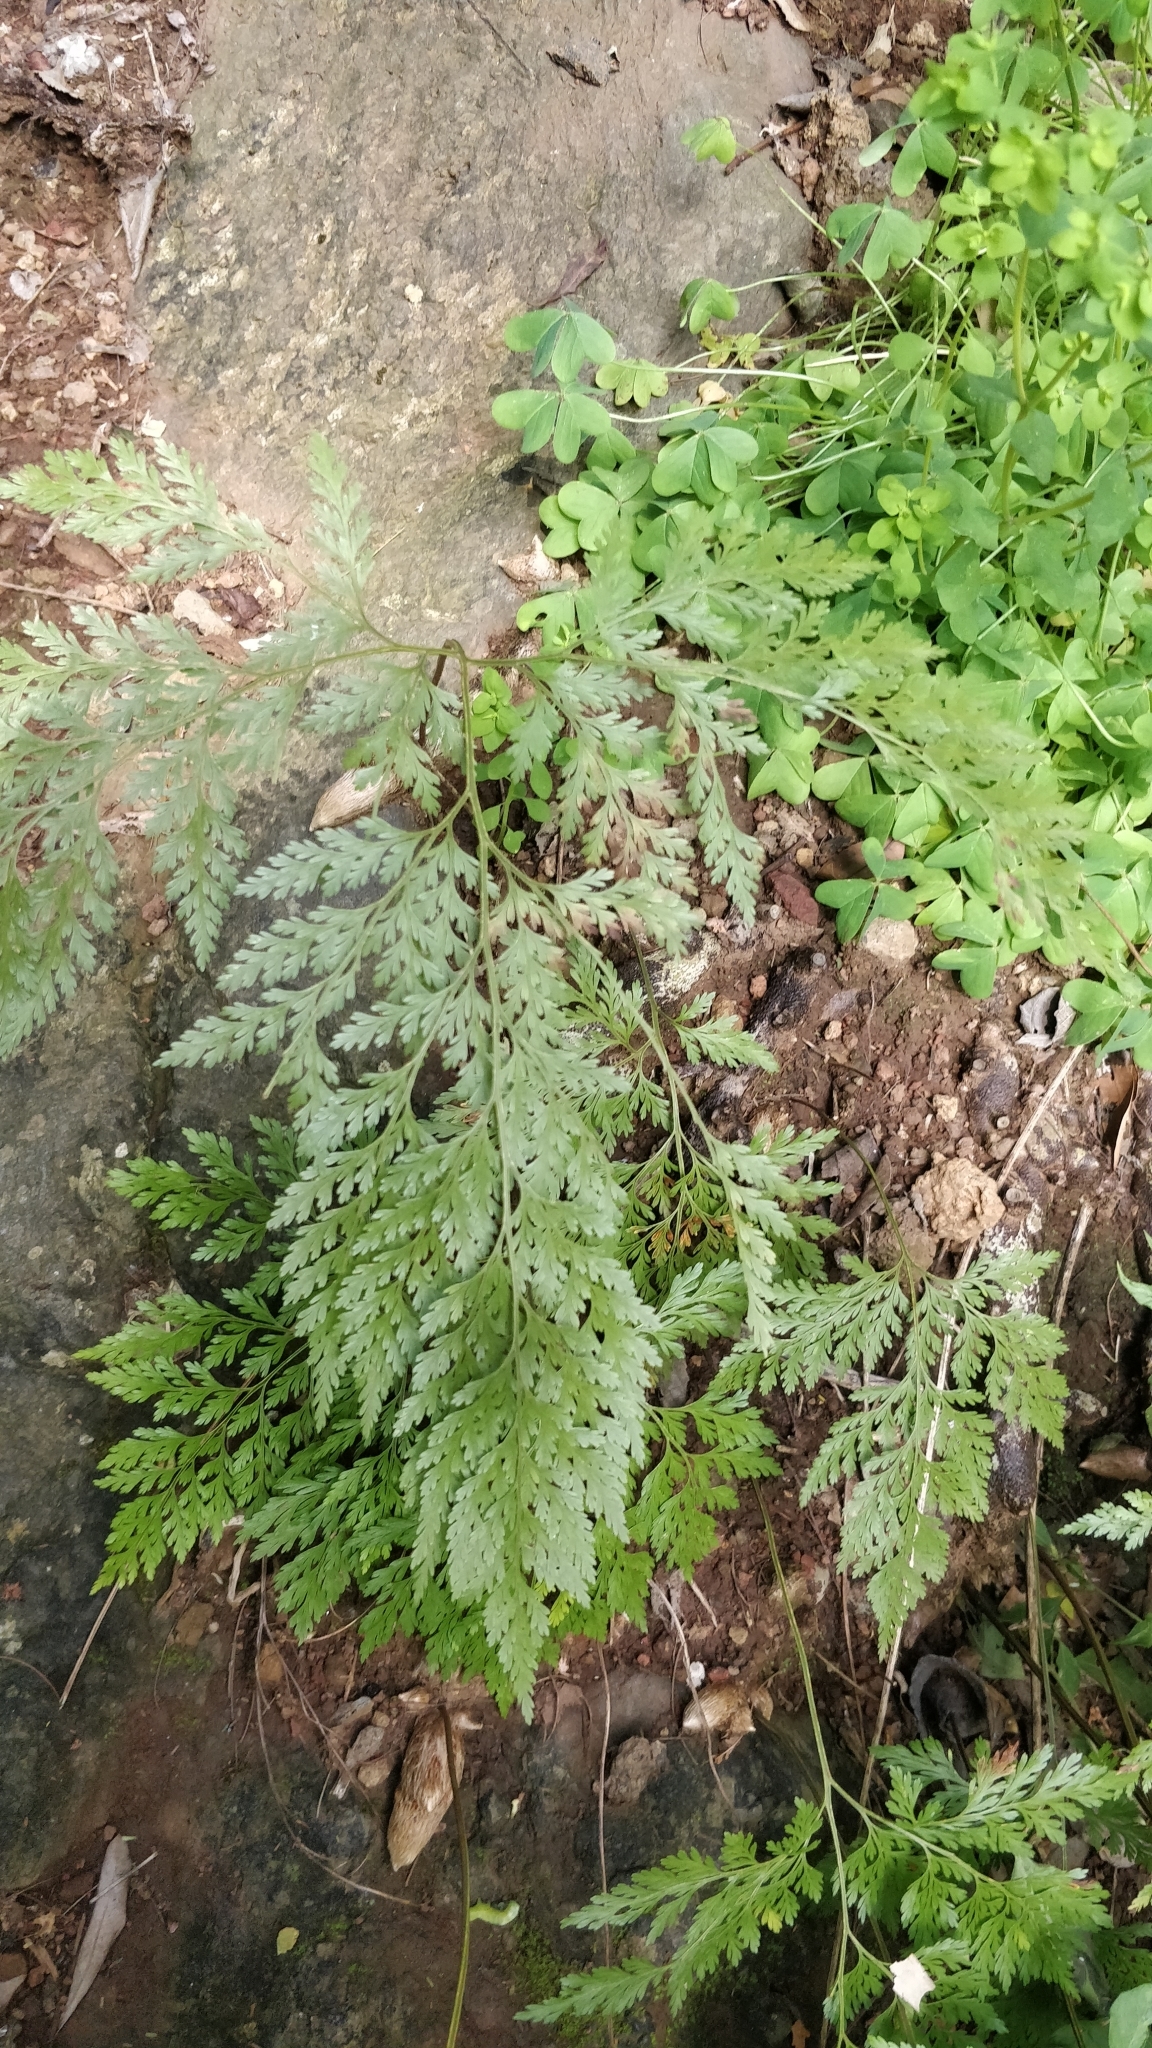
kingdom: Plantae
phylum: Tracheophyta
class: Polypodiopsida
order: Polypodiales
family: Davalliaceae
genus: Davallia
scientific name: Davallia canariensis
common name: Hare's-foot fern
